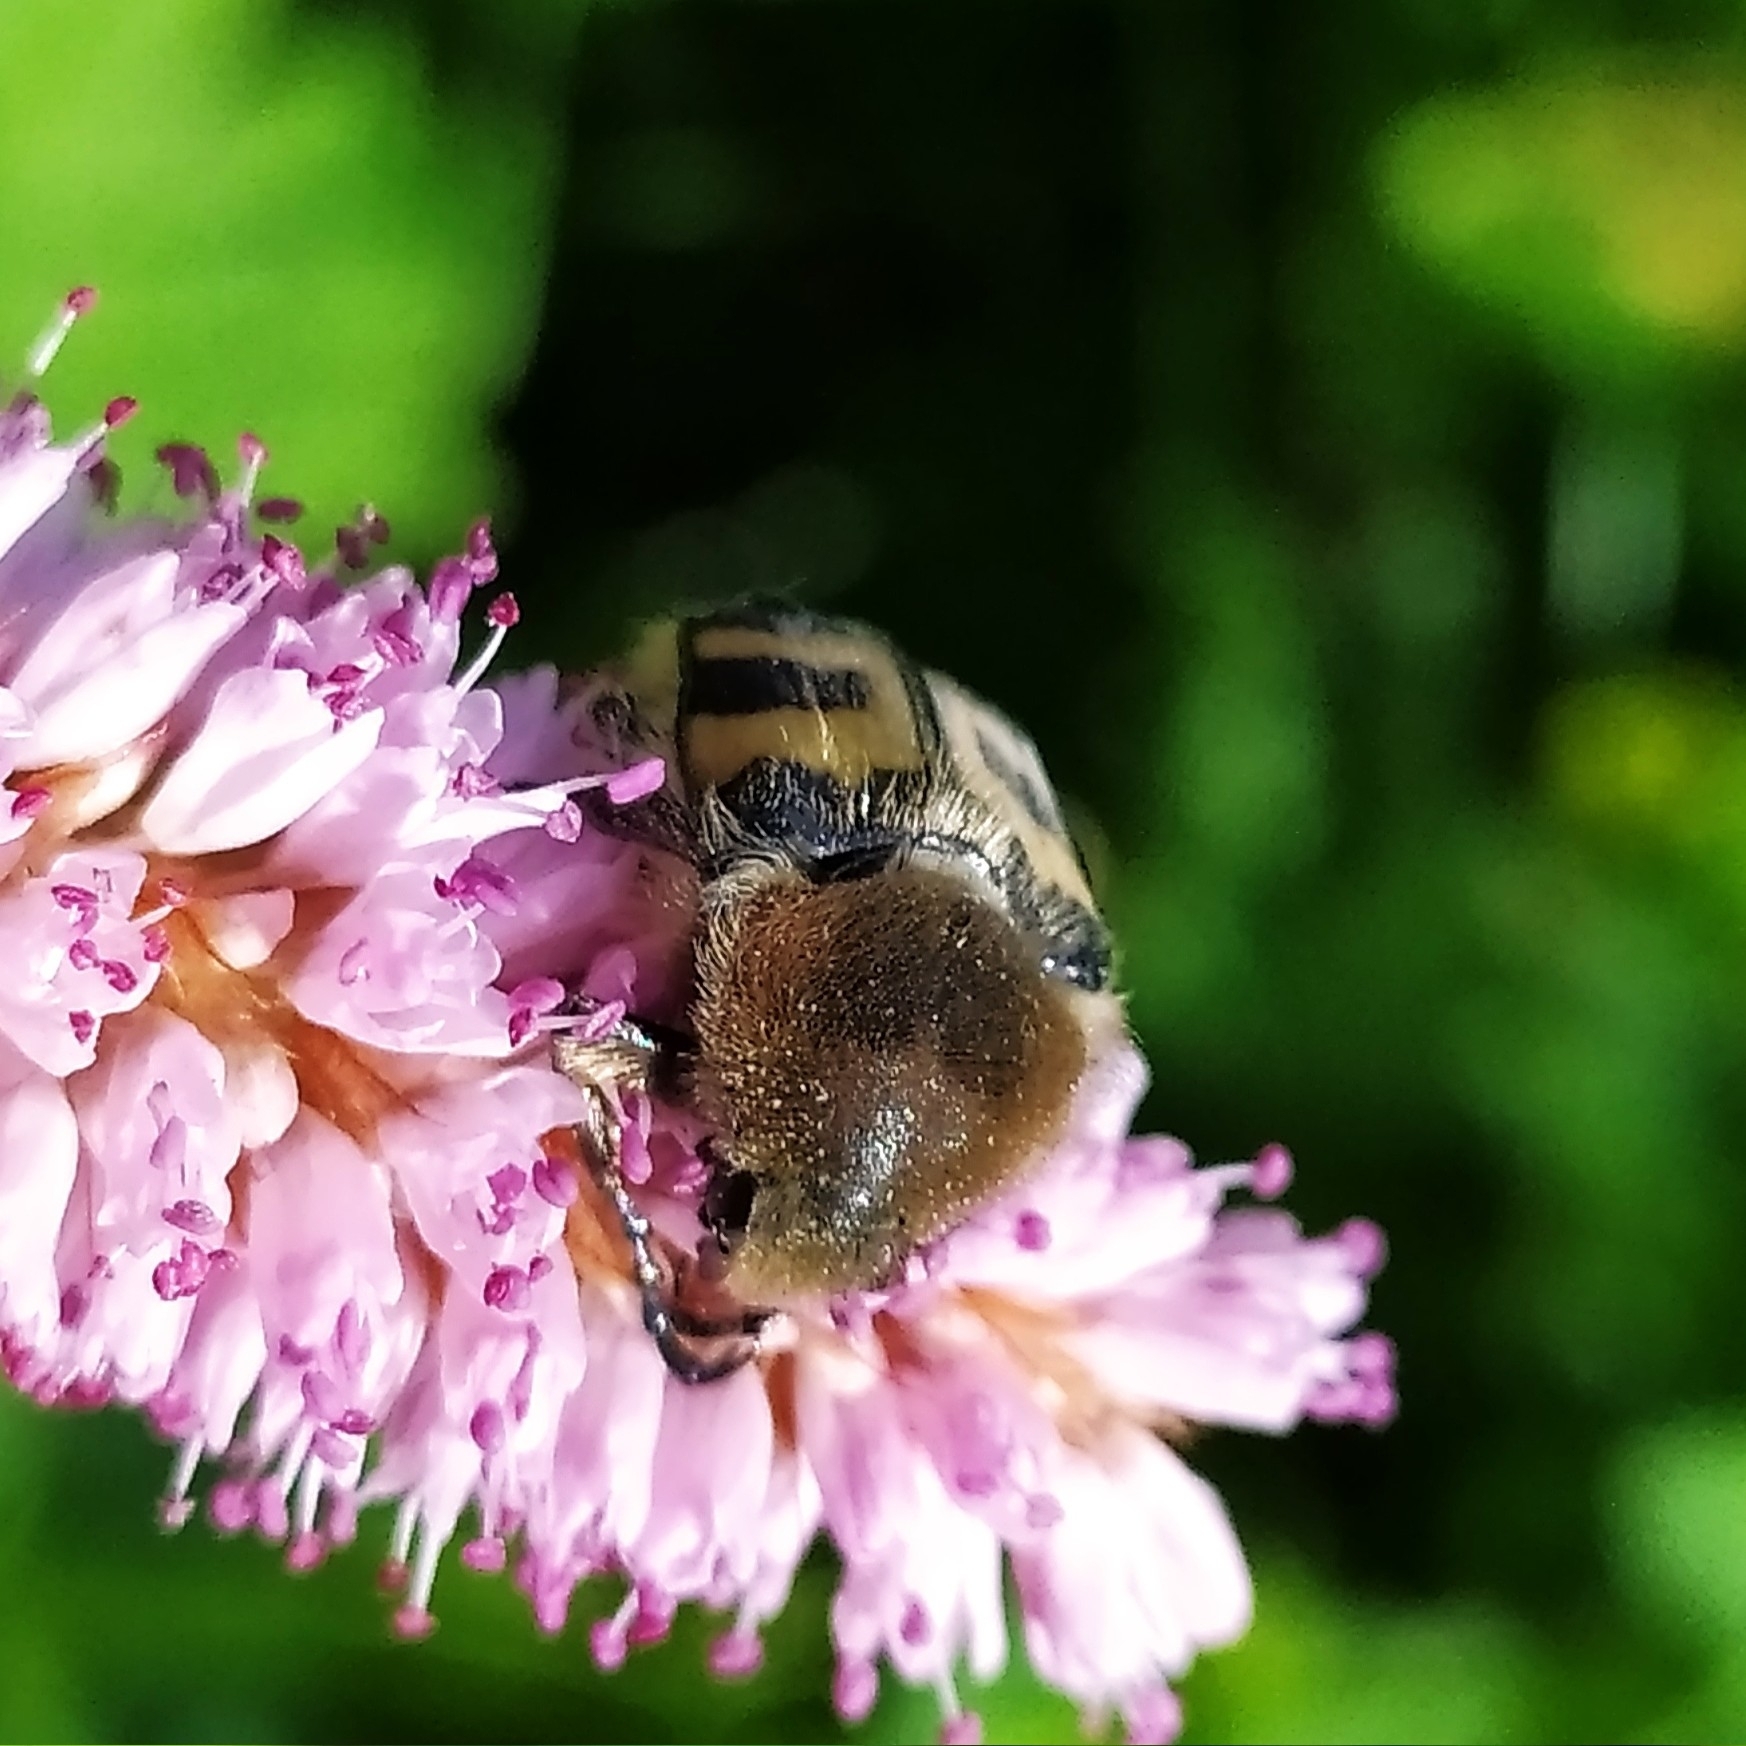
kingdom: Animalia
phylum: Arthropoda
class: Insecta
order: Coleoptera
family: Scarabaeidae
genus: Trichius
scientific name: Trichius fasciatus
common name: Bee beetle
